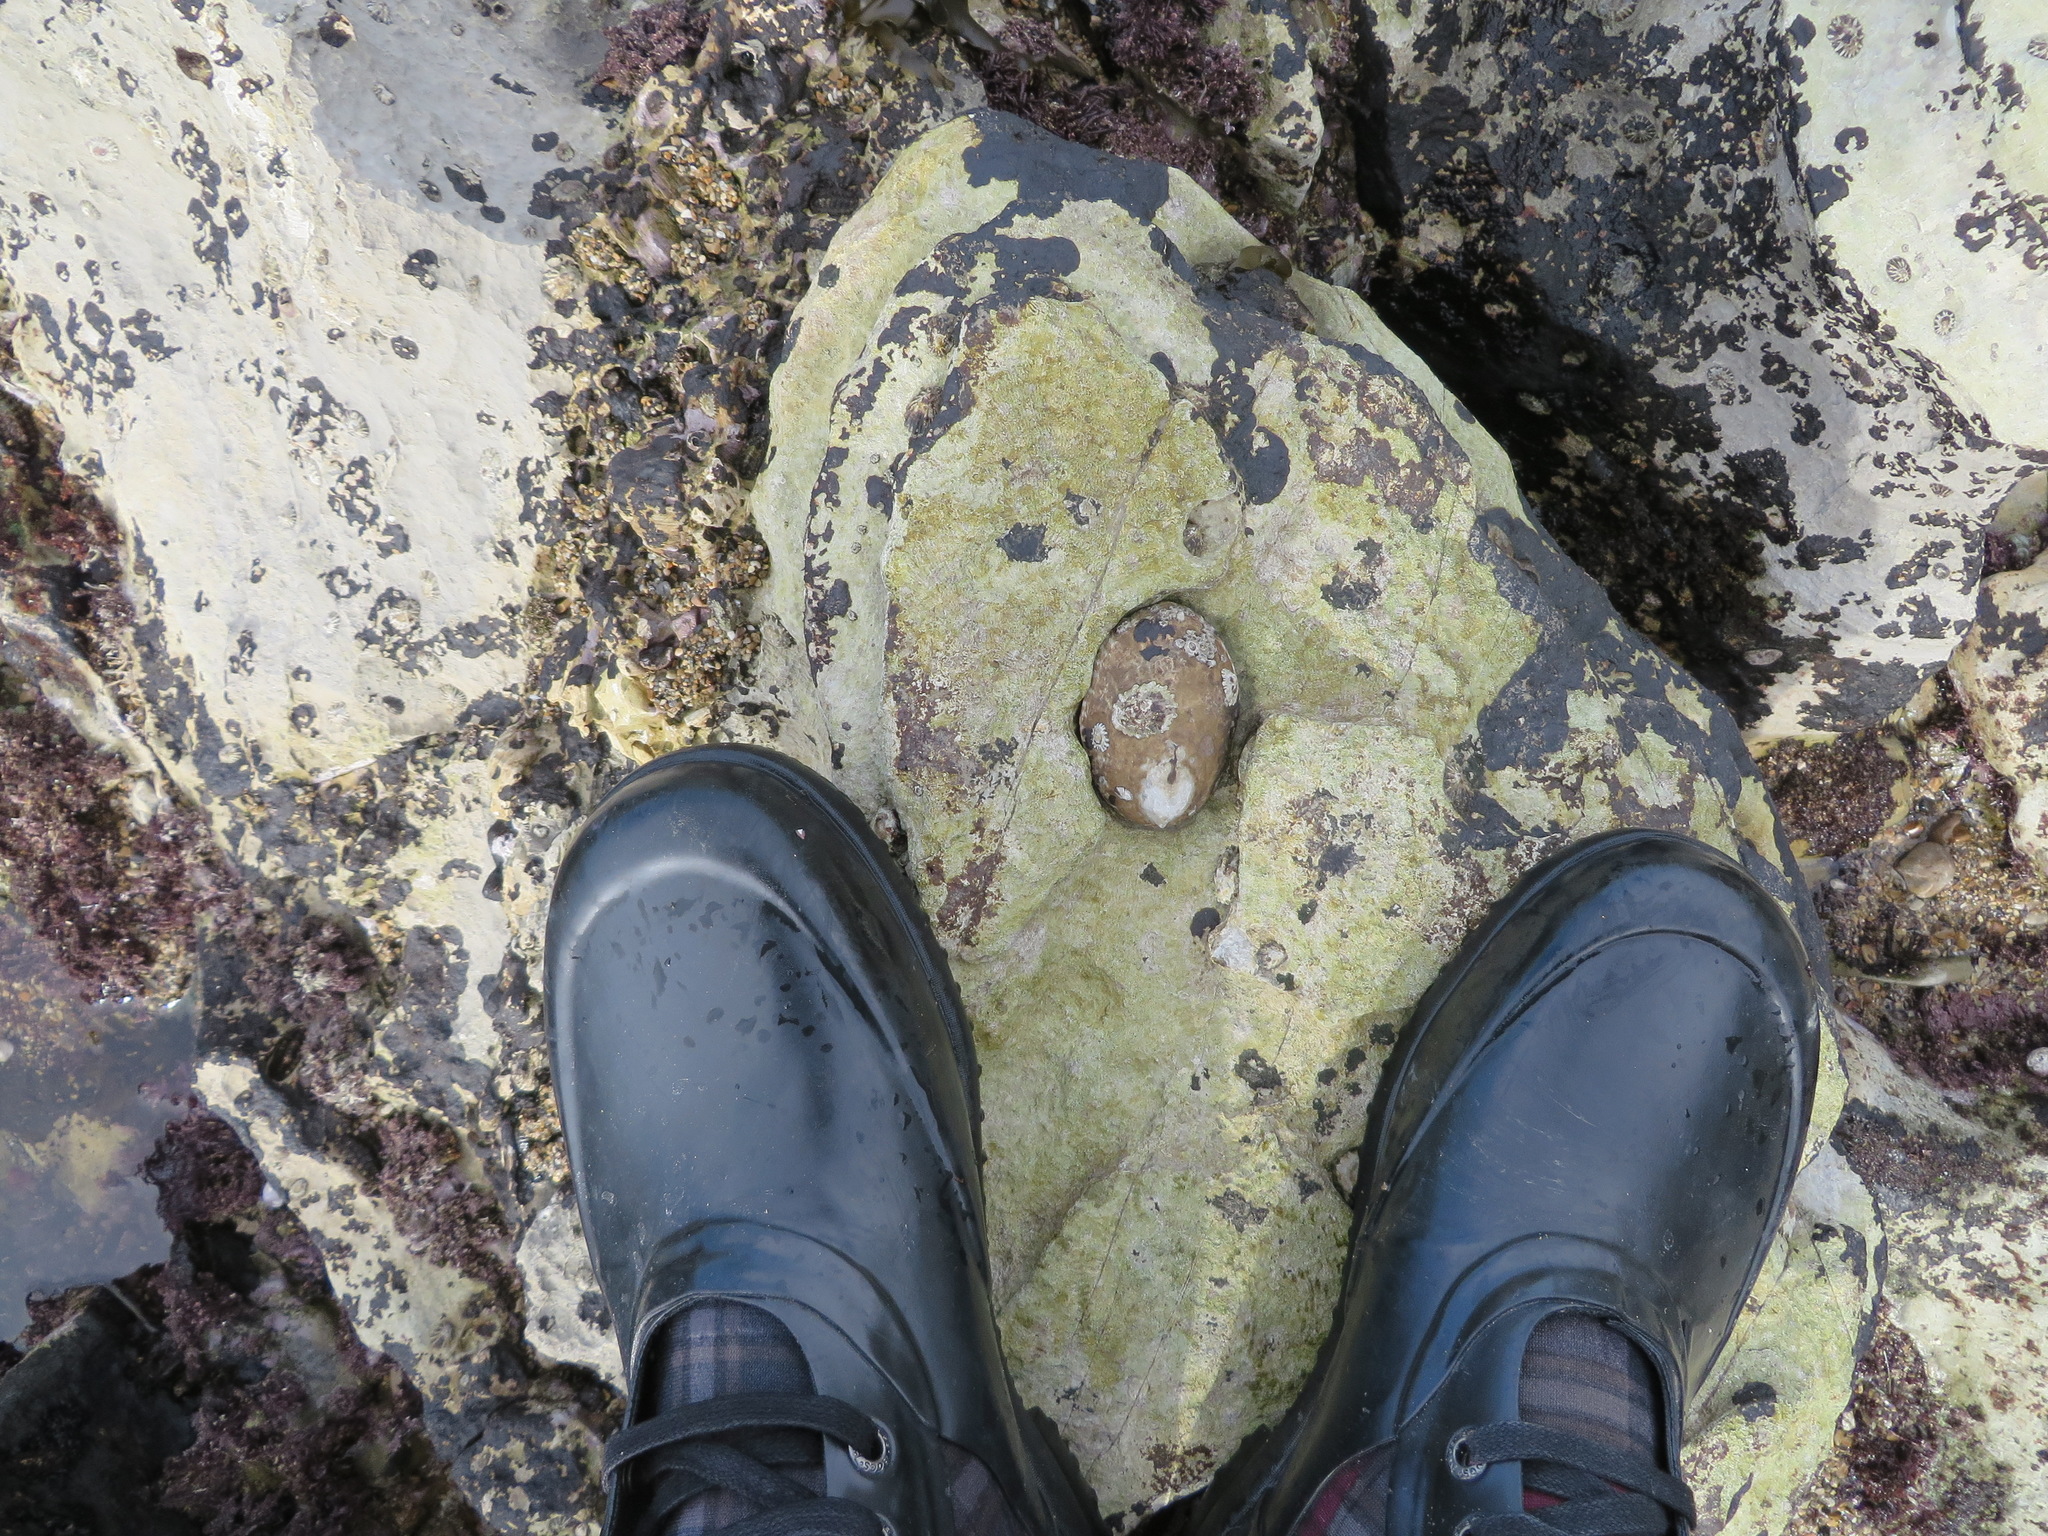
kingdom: Animalia
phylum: Mollusca
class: Gastropoda
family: Lottiidae
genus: Lottia
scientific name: Lottia gigantea
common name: Owl limpet
